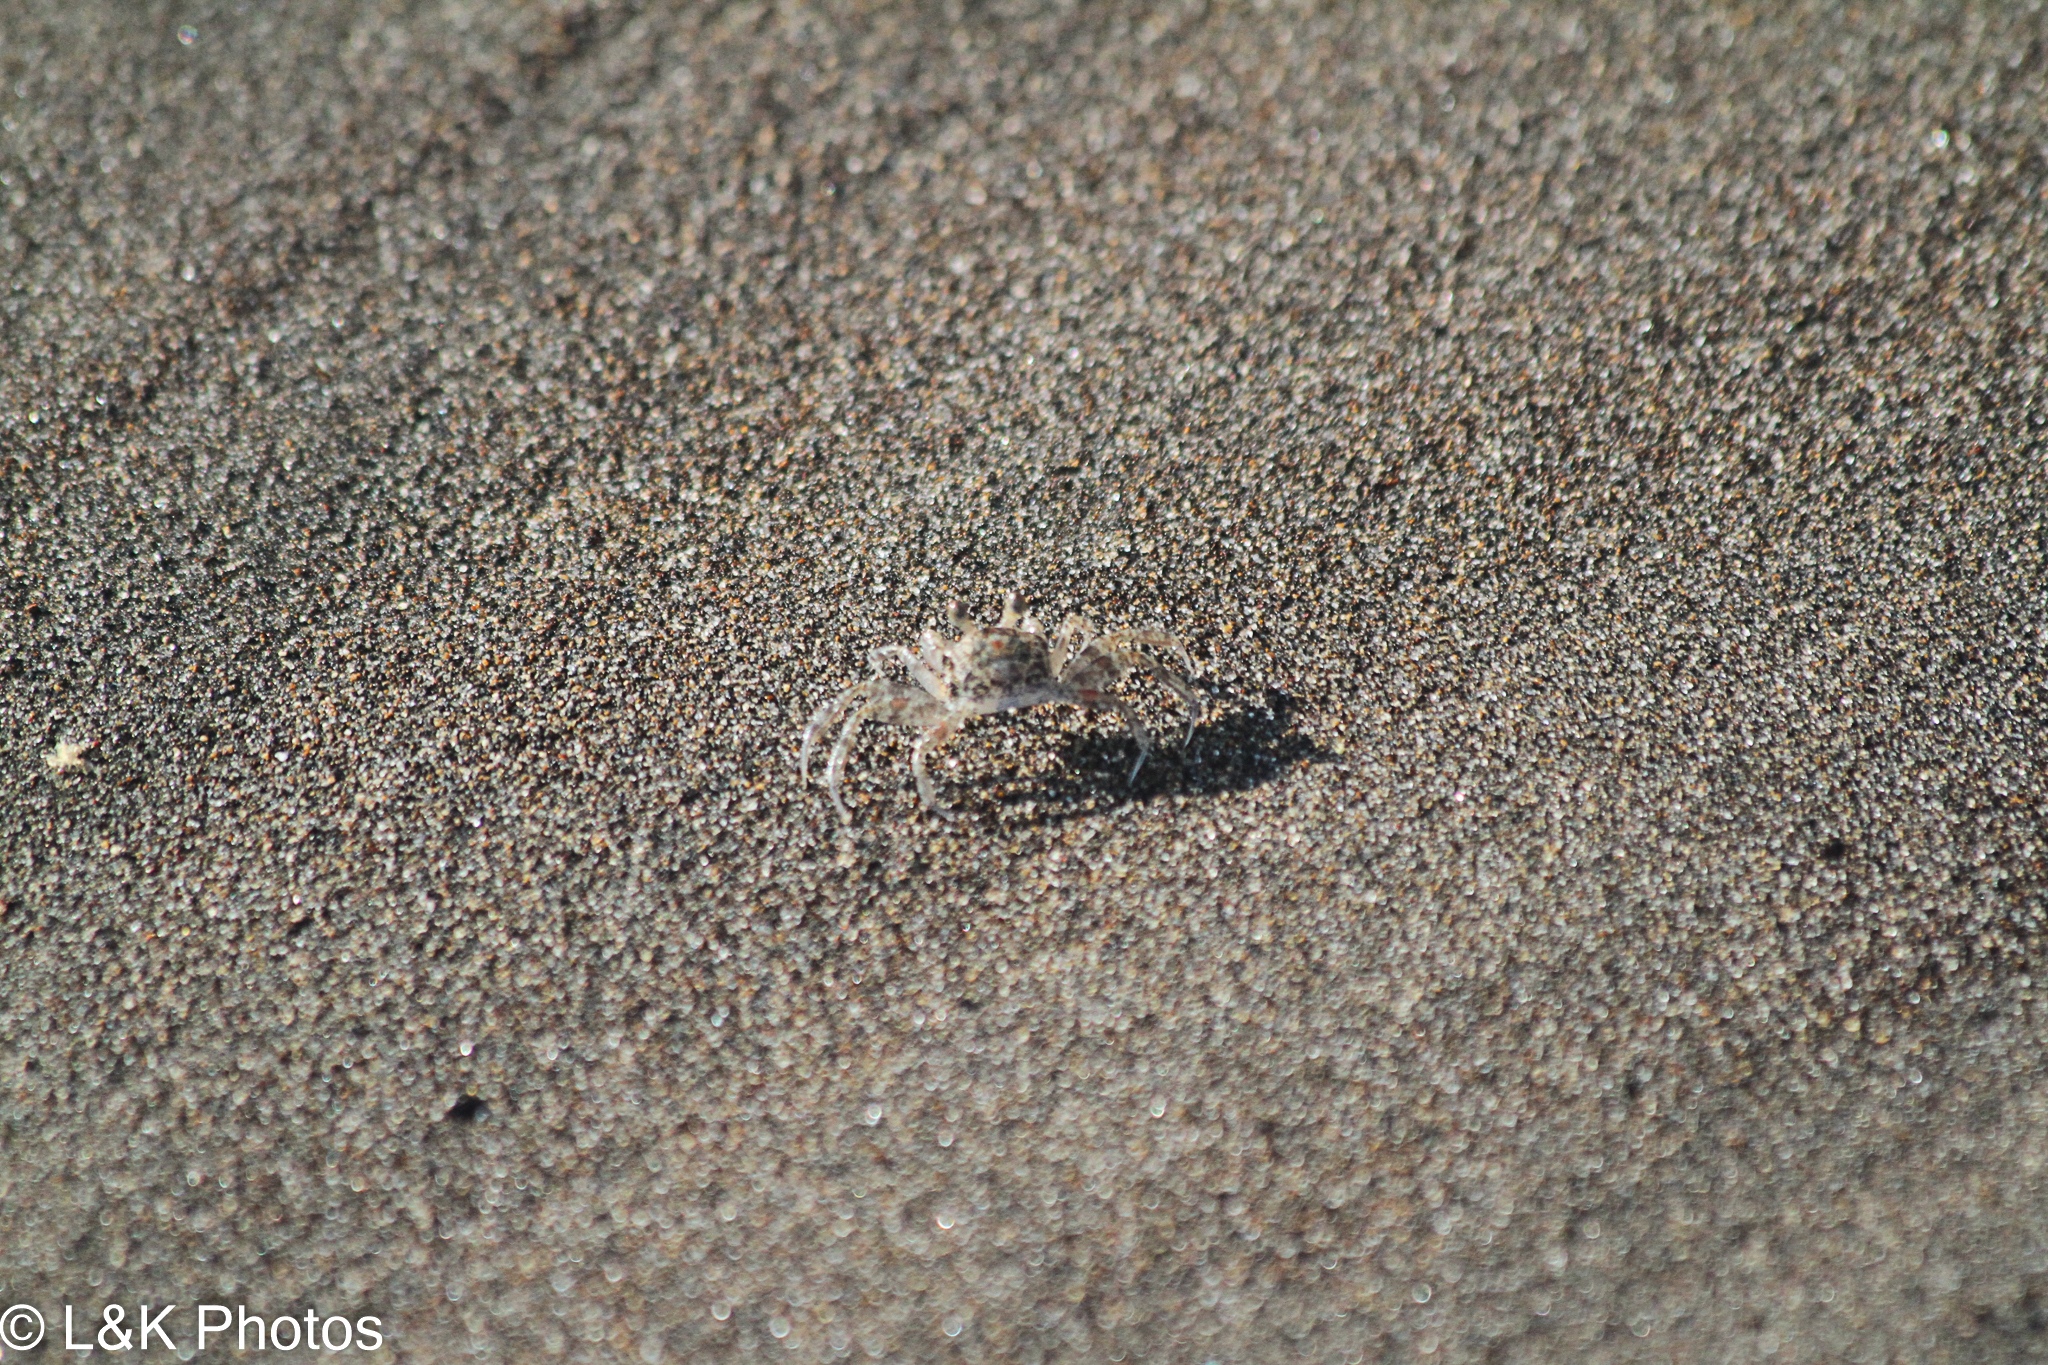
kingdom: Animalia
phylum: Arthropoda
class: Malacostraca
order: Decapoda
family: Ocypodidae
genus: Ocypode
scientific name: Ocypode quadrata
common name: Ghost crab
